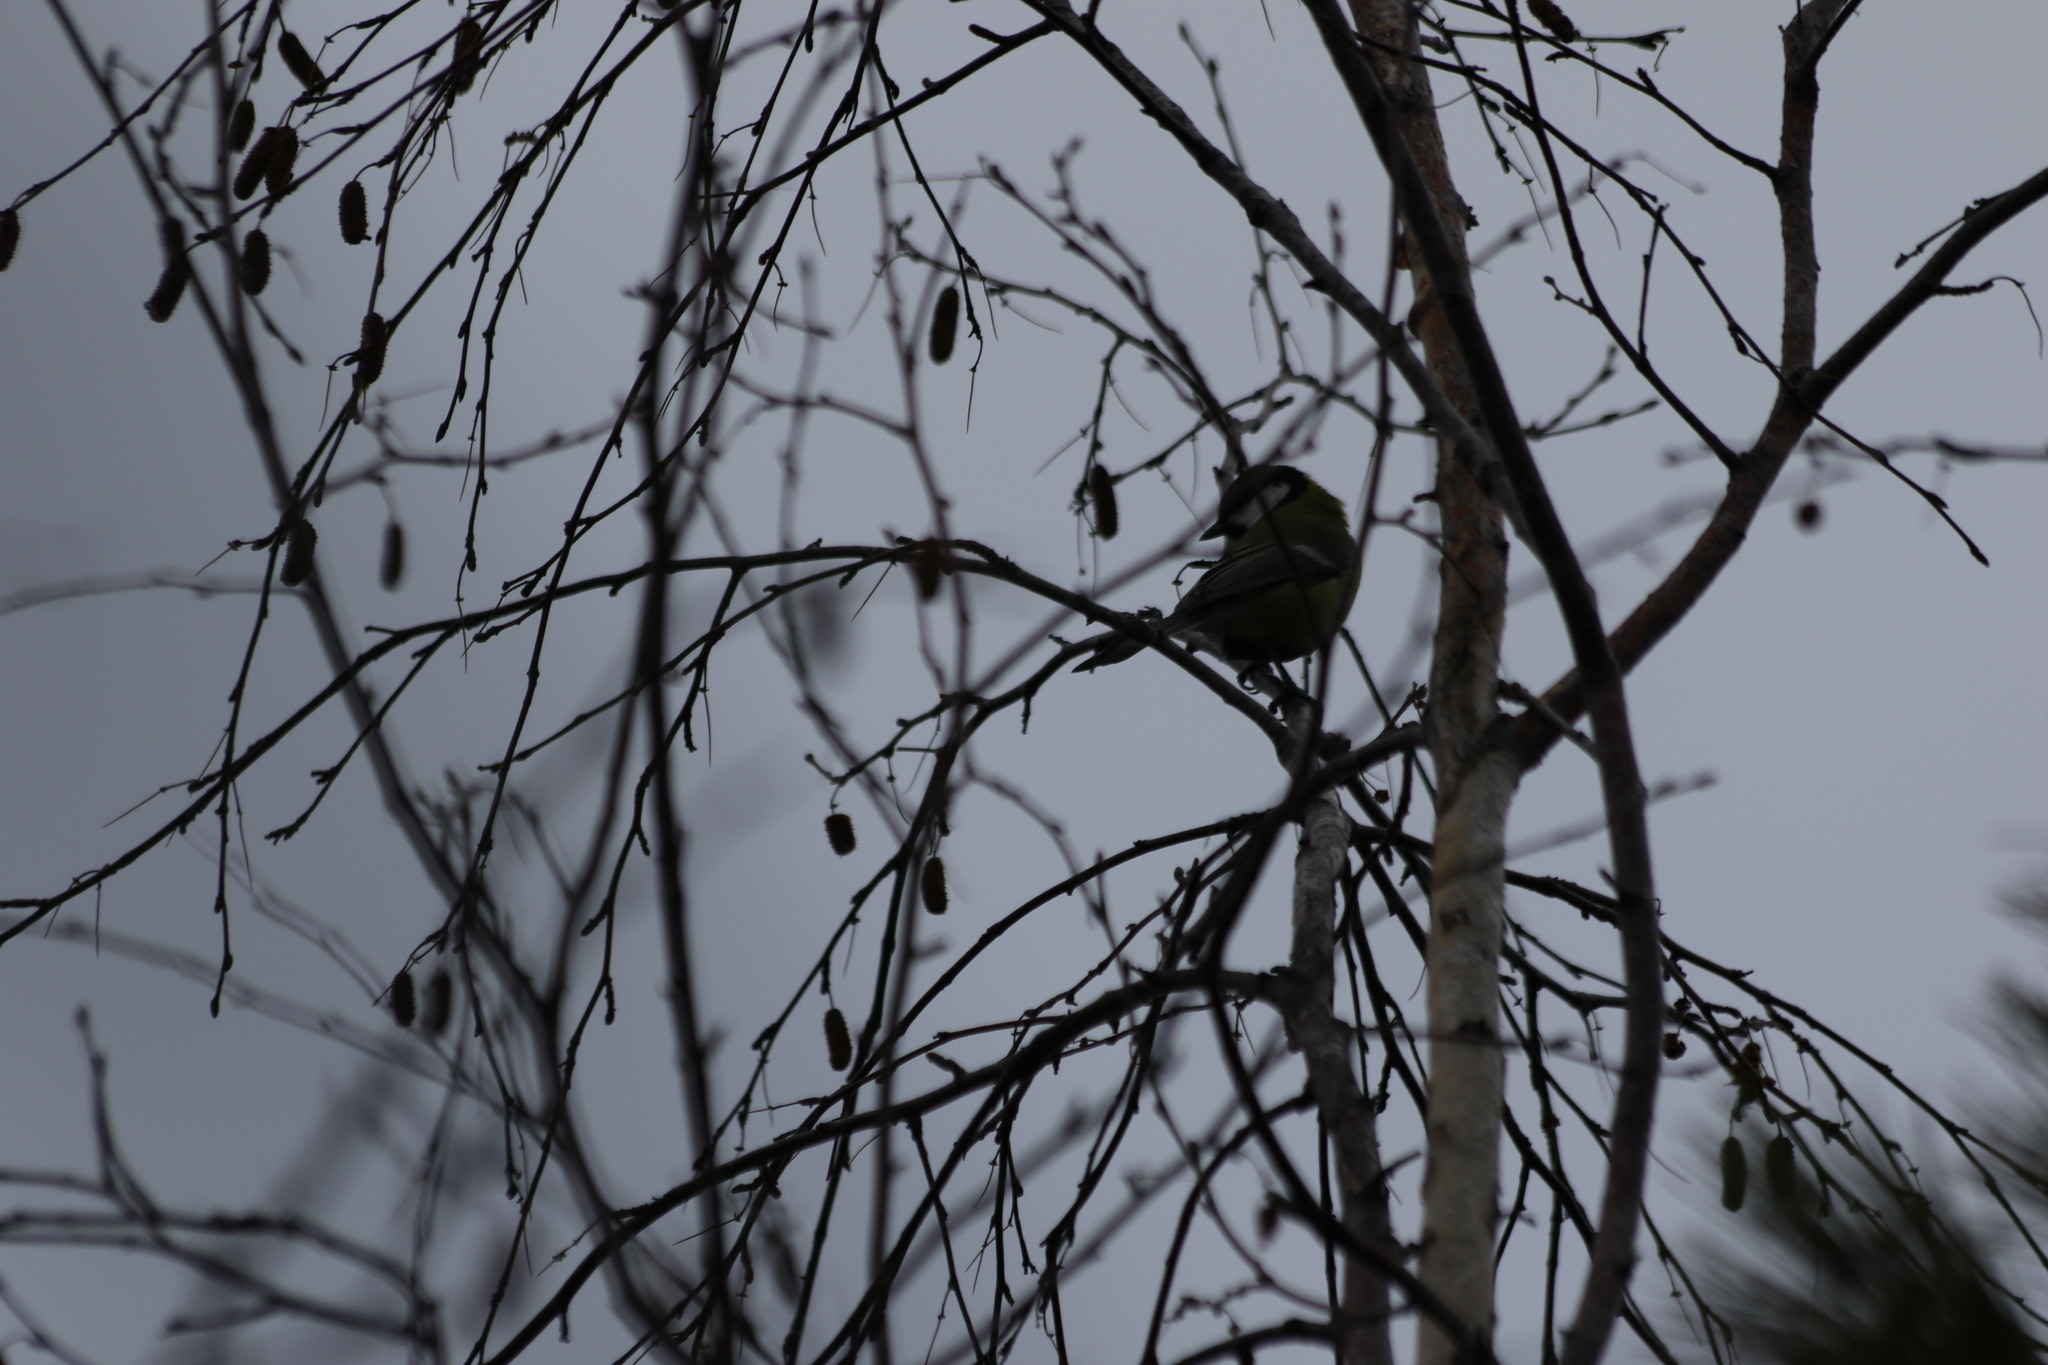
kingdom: Animalia
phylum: Chordata
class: Aves
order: Passeriformes
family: Paridae
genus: Parus
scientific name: Parus major
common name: Great tit
